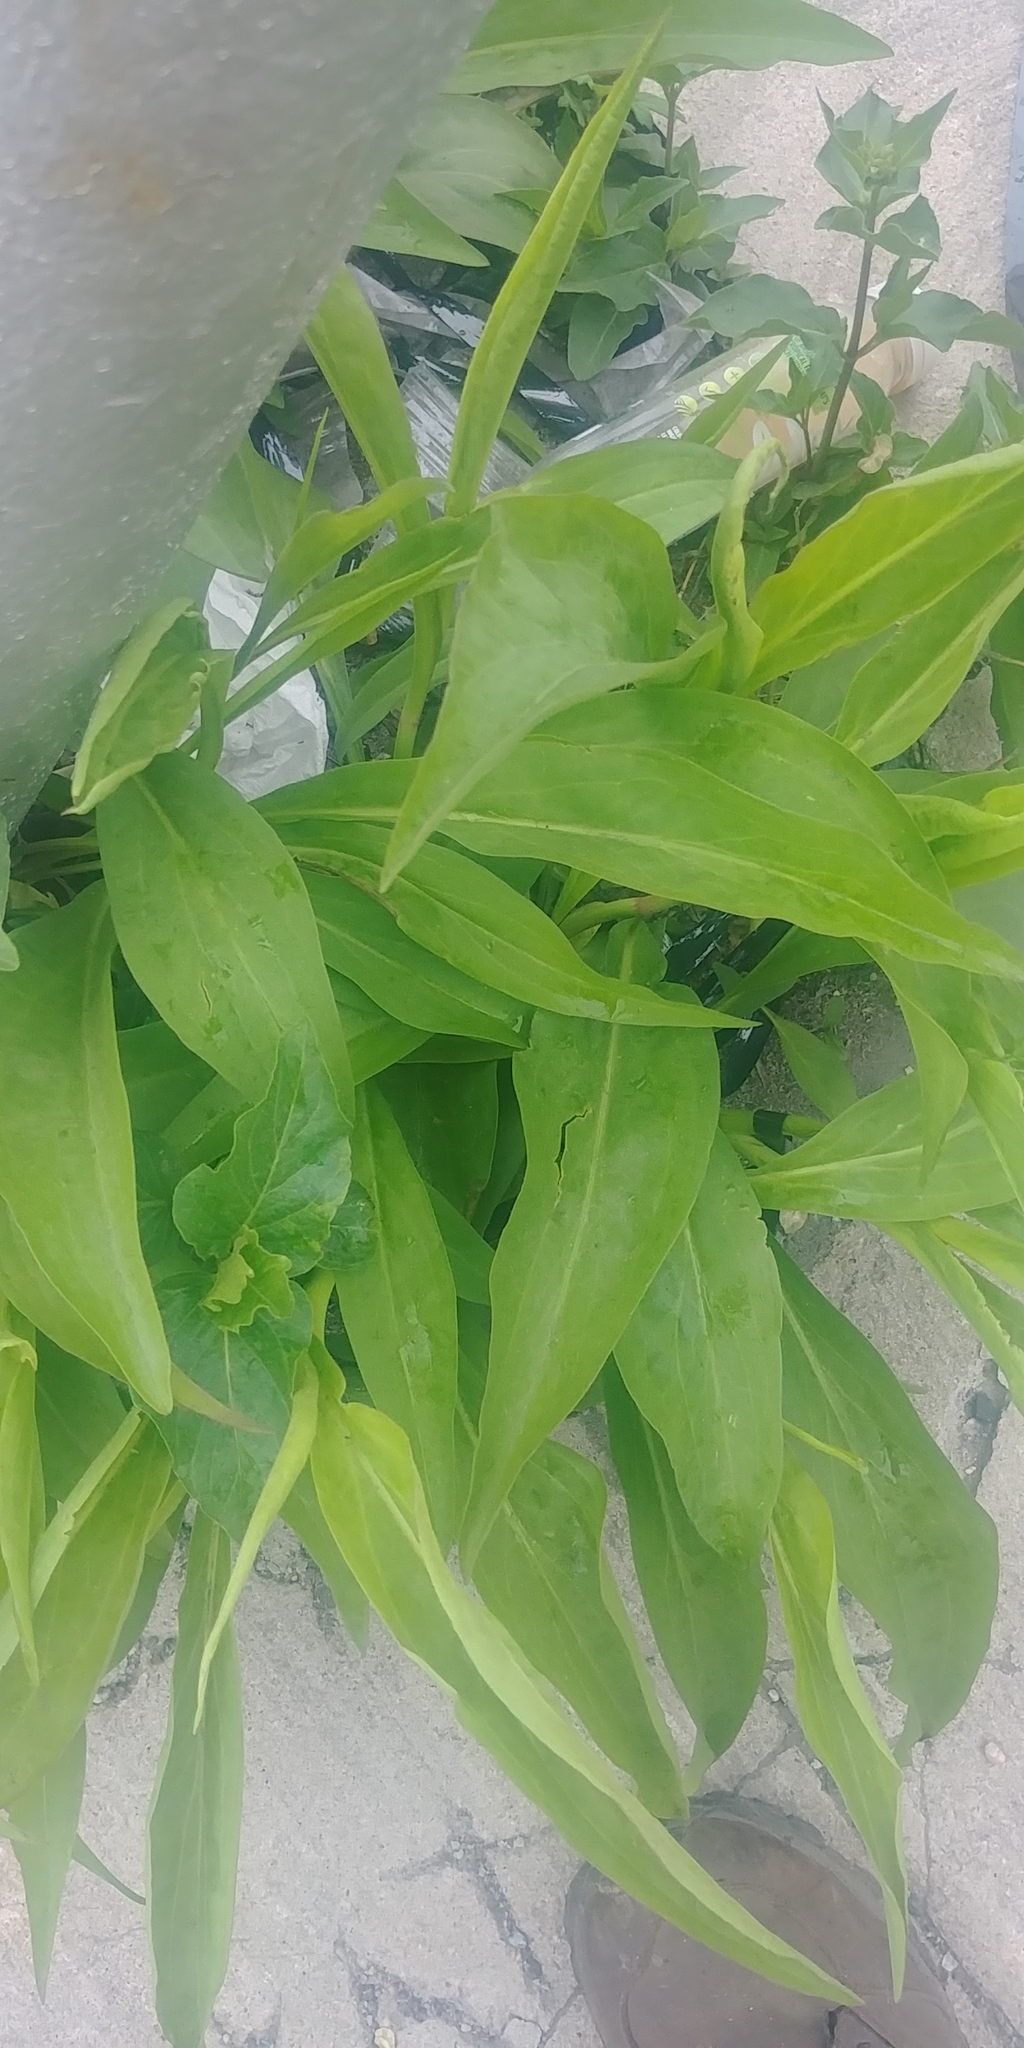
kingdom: Plantae
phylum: Tracheophyta
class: Magnoliopsida
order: Asterales
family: Asteraceae
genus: Solidago
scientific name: Solidago sempervirens
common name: Salt-marsh goldenrod
